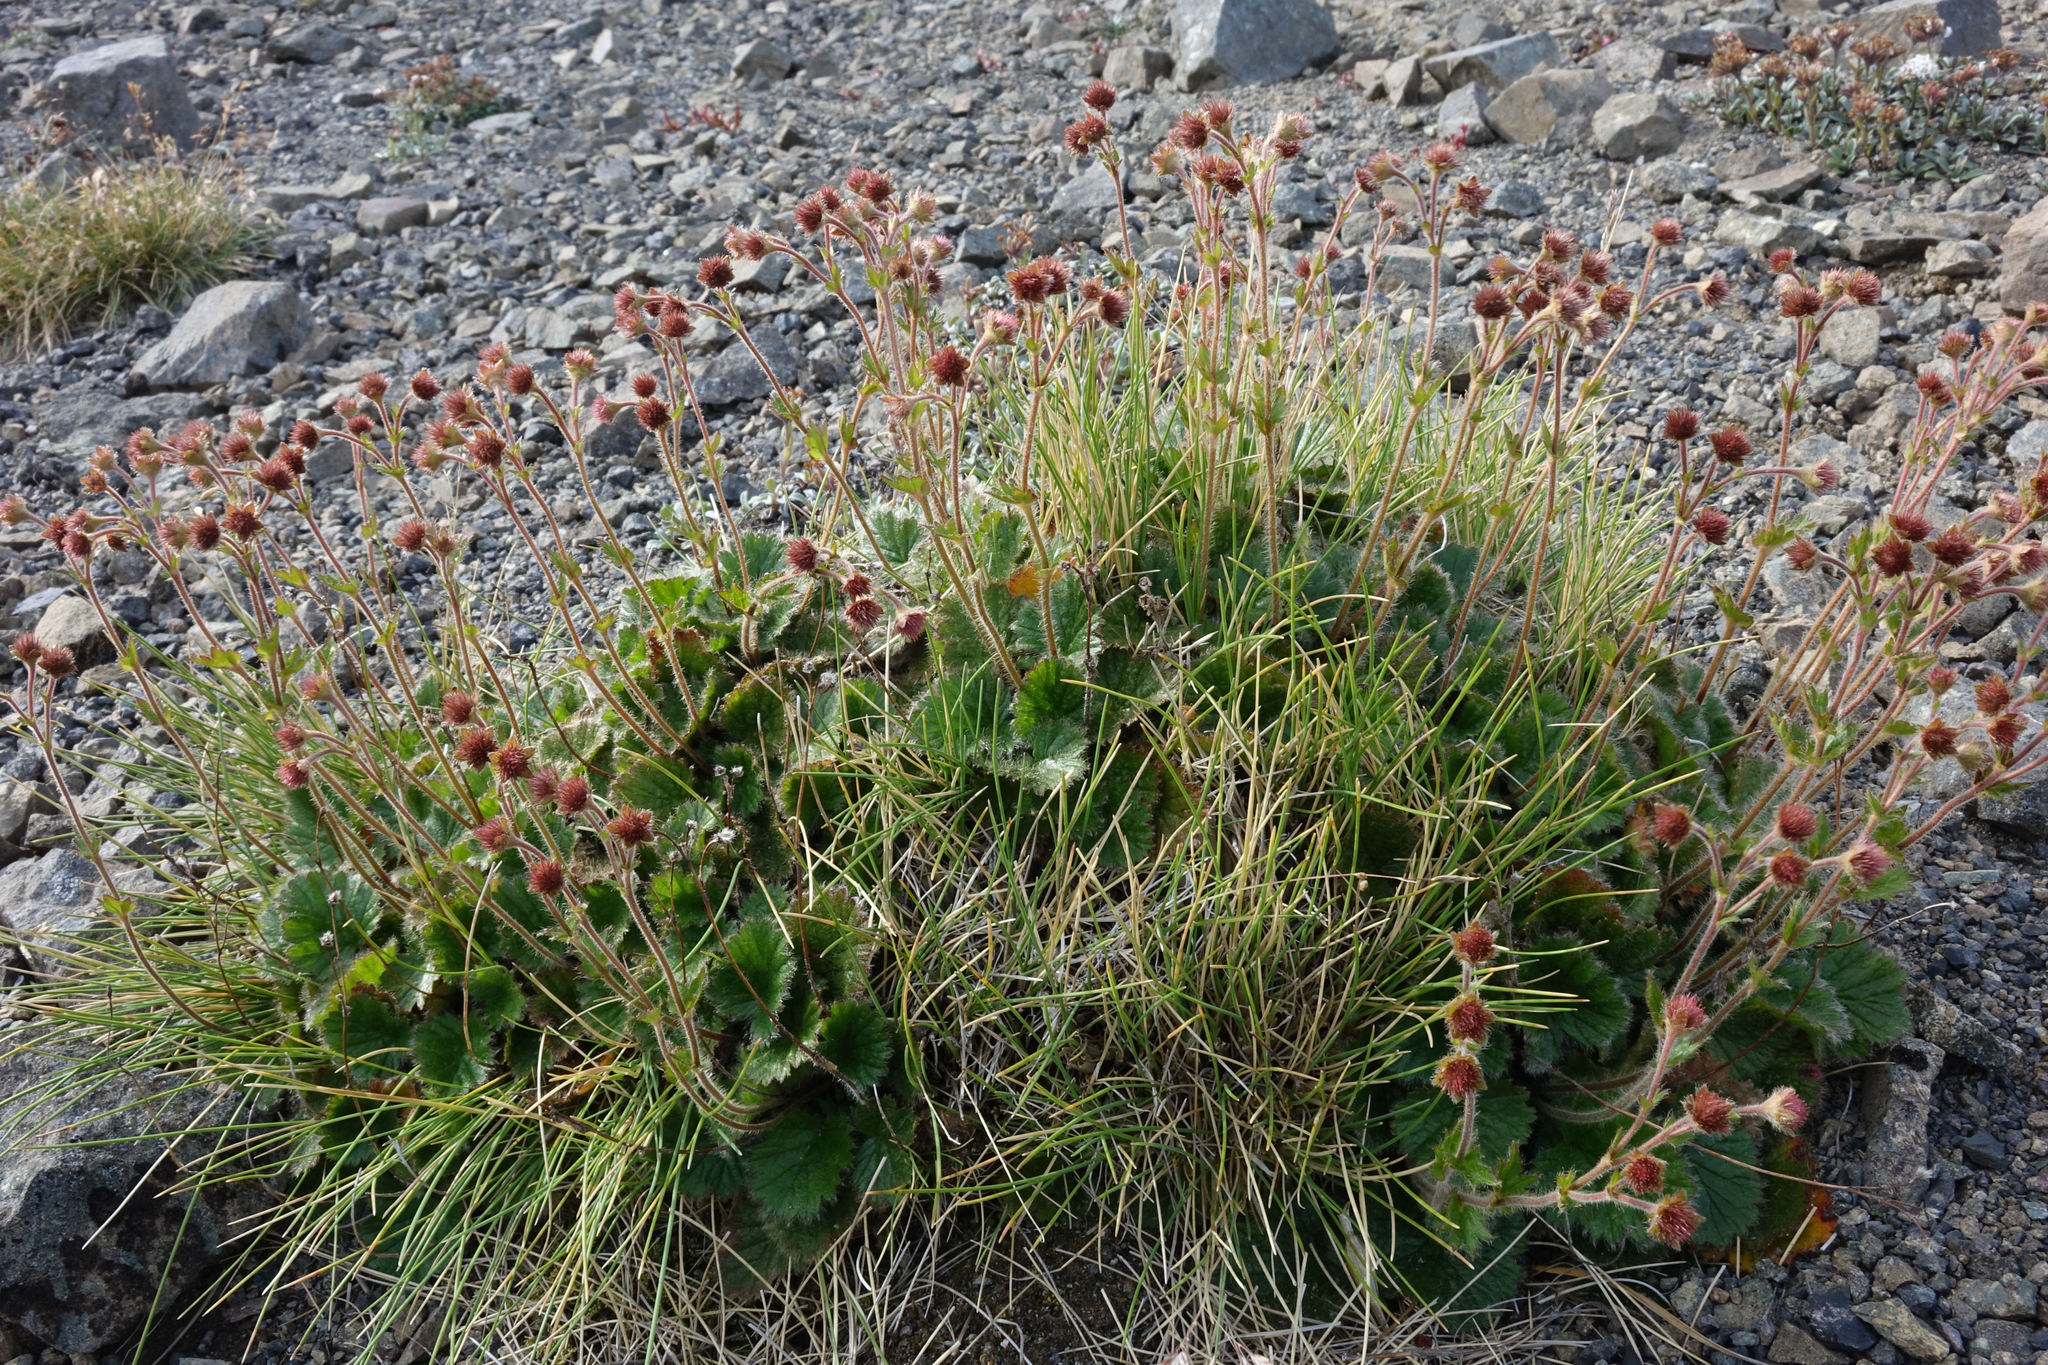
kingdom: Plantae
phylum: Tracheophyta
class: Magnoliopsida
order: Rosales
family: Rosaceae
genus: Geum
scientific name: Geum cockaynei
